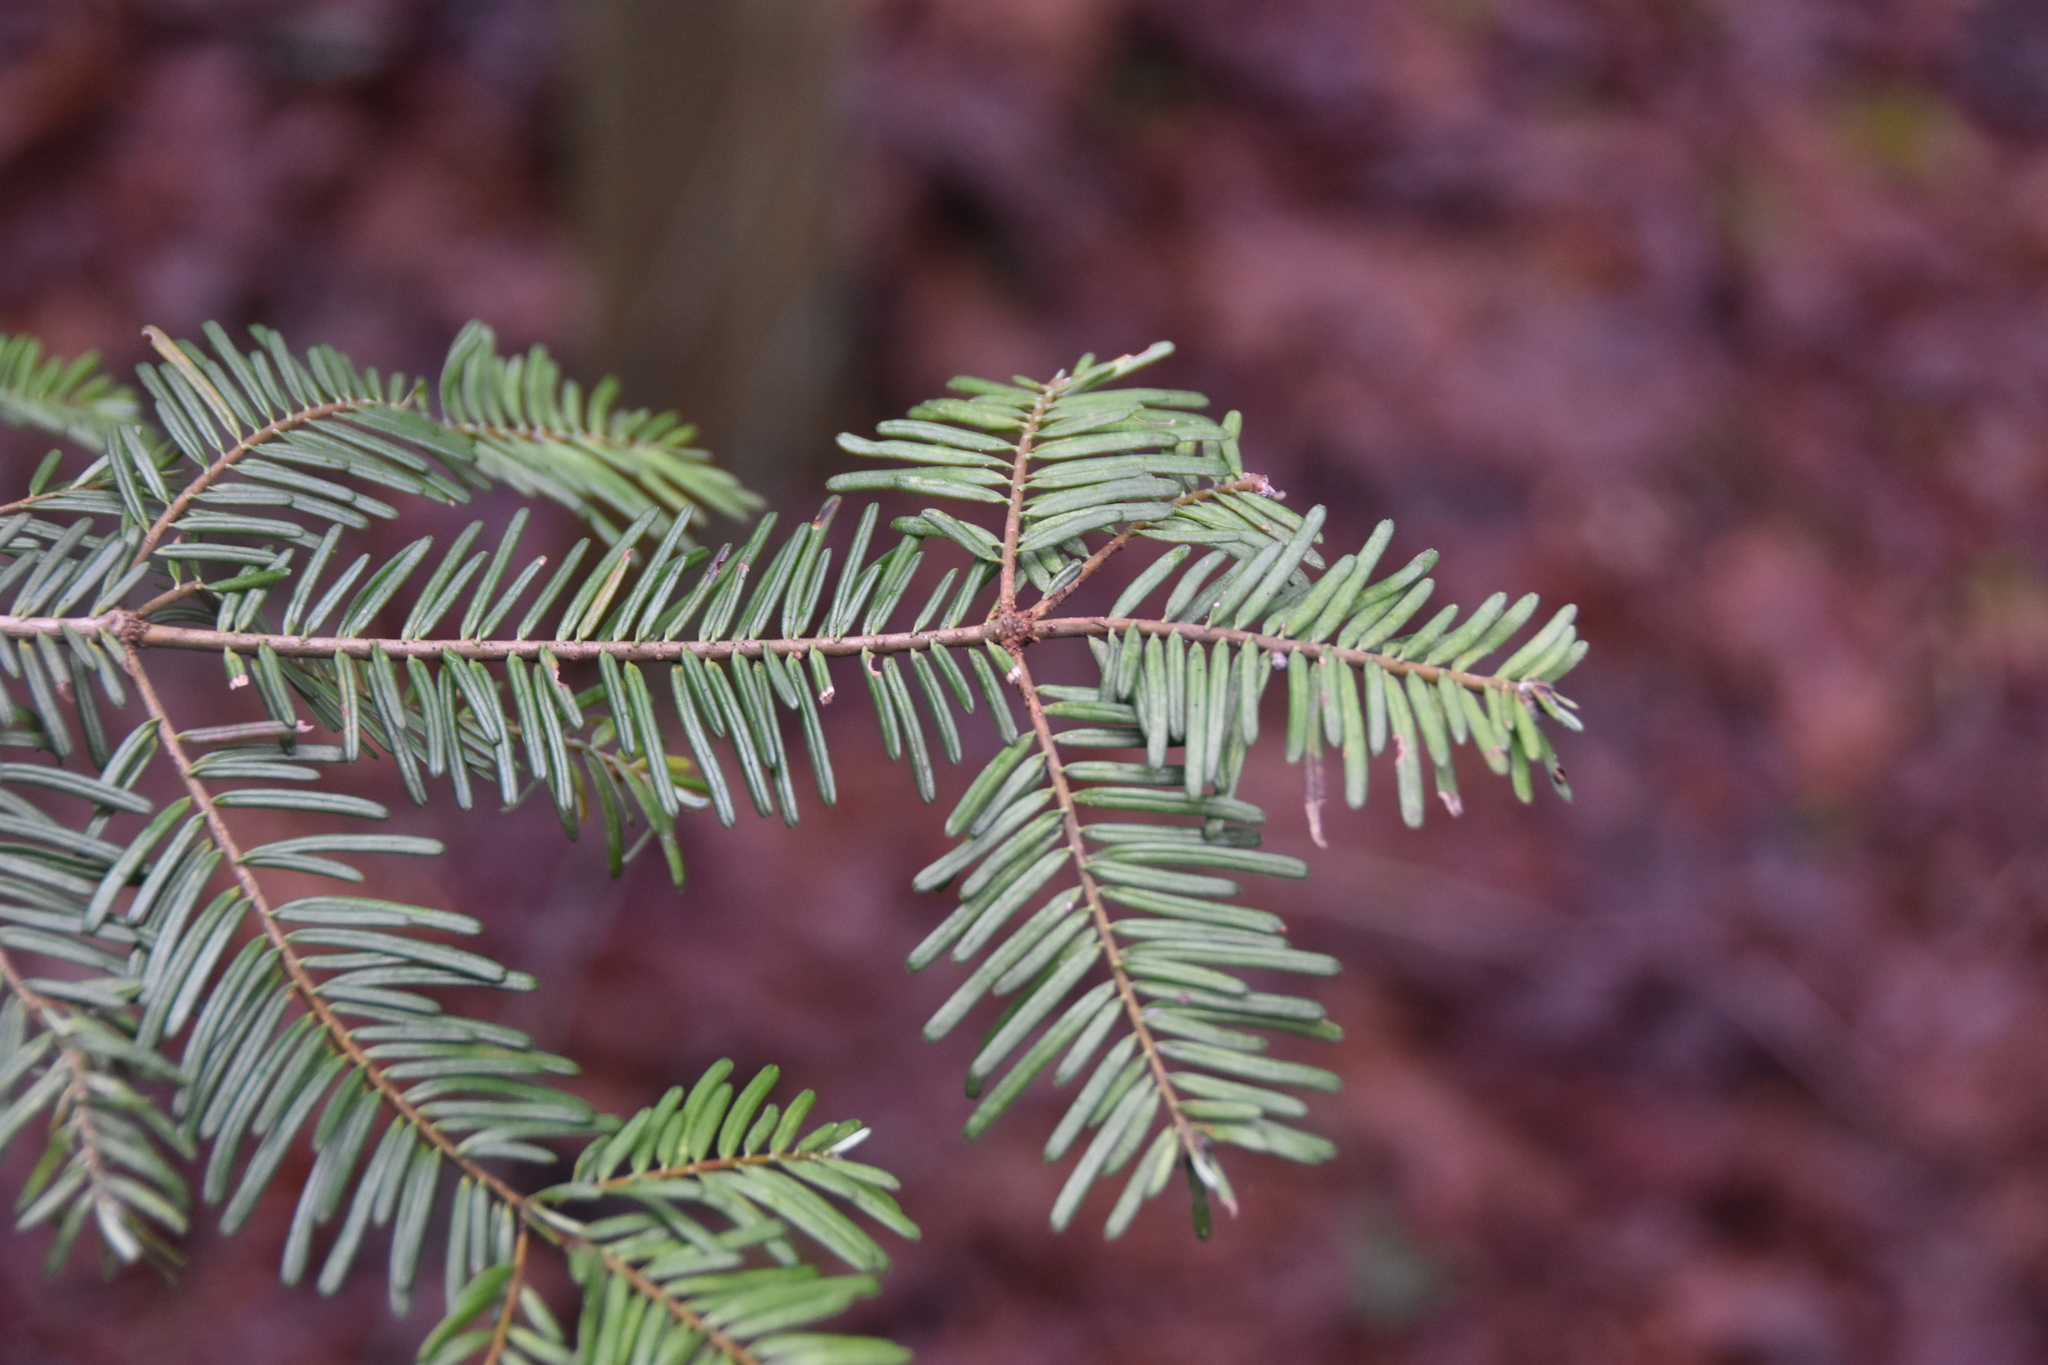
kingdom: Plantae
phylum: Tracheophyta
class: Pinopsida
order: Pinales
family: Pinaceae
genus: Abies
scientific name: Abies grandis
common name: Giant fir
